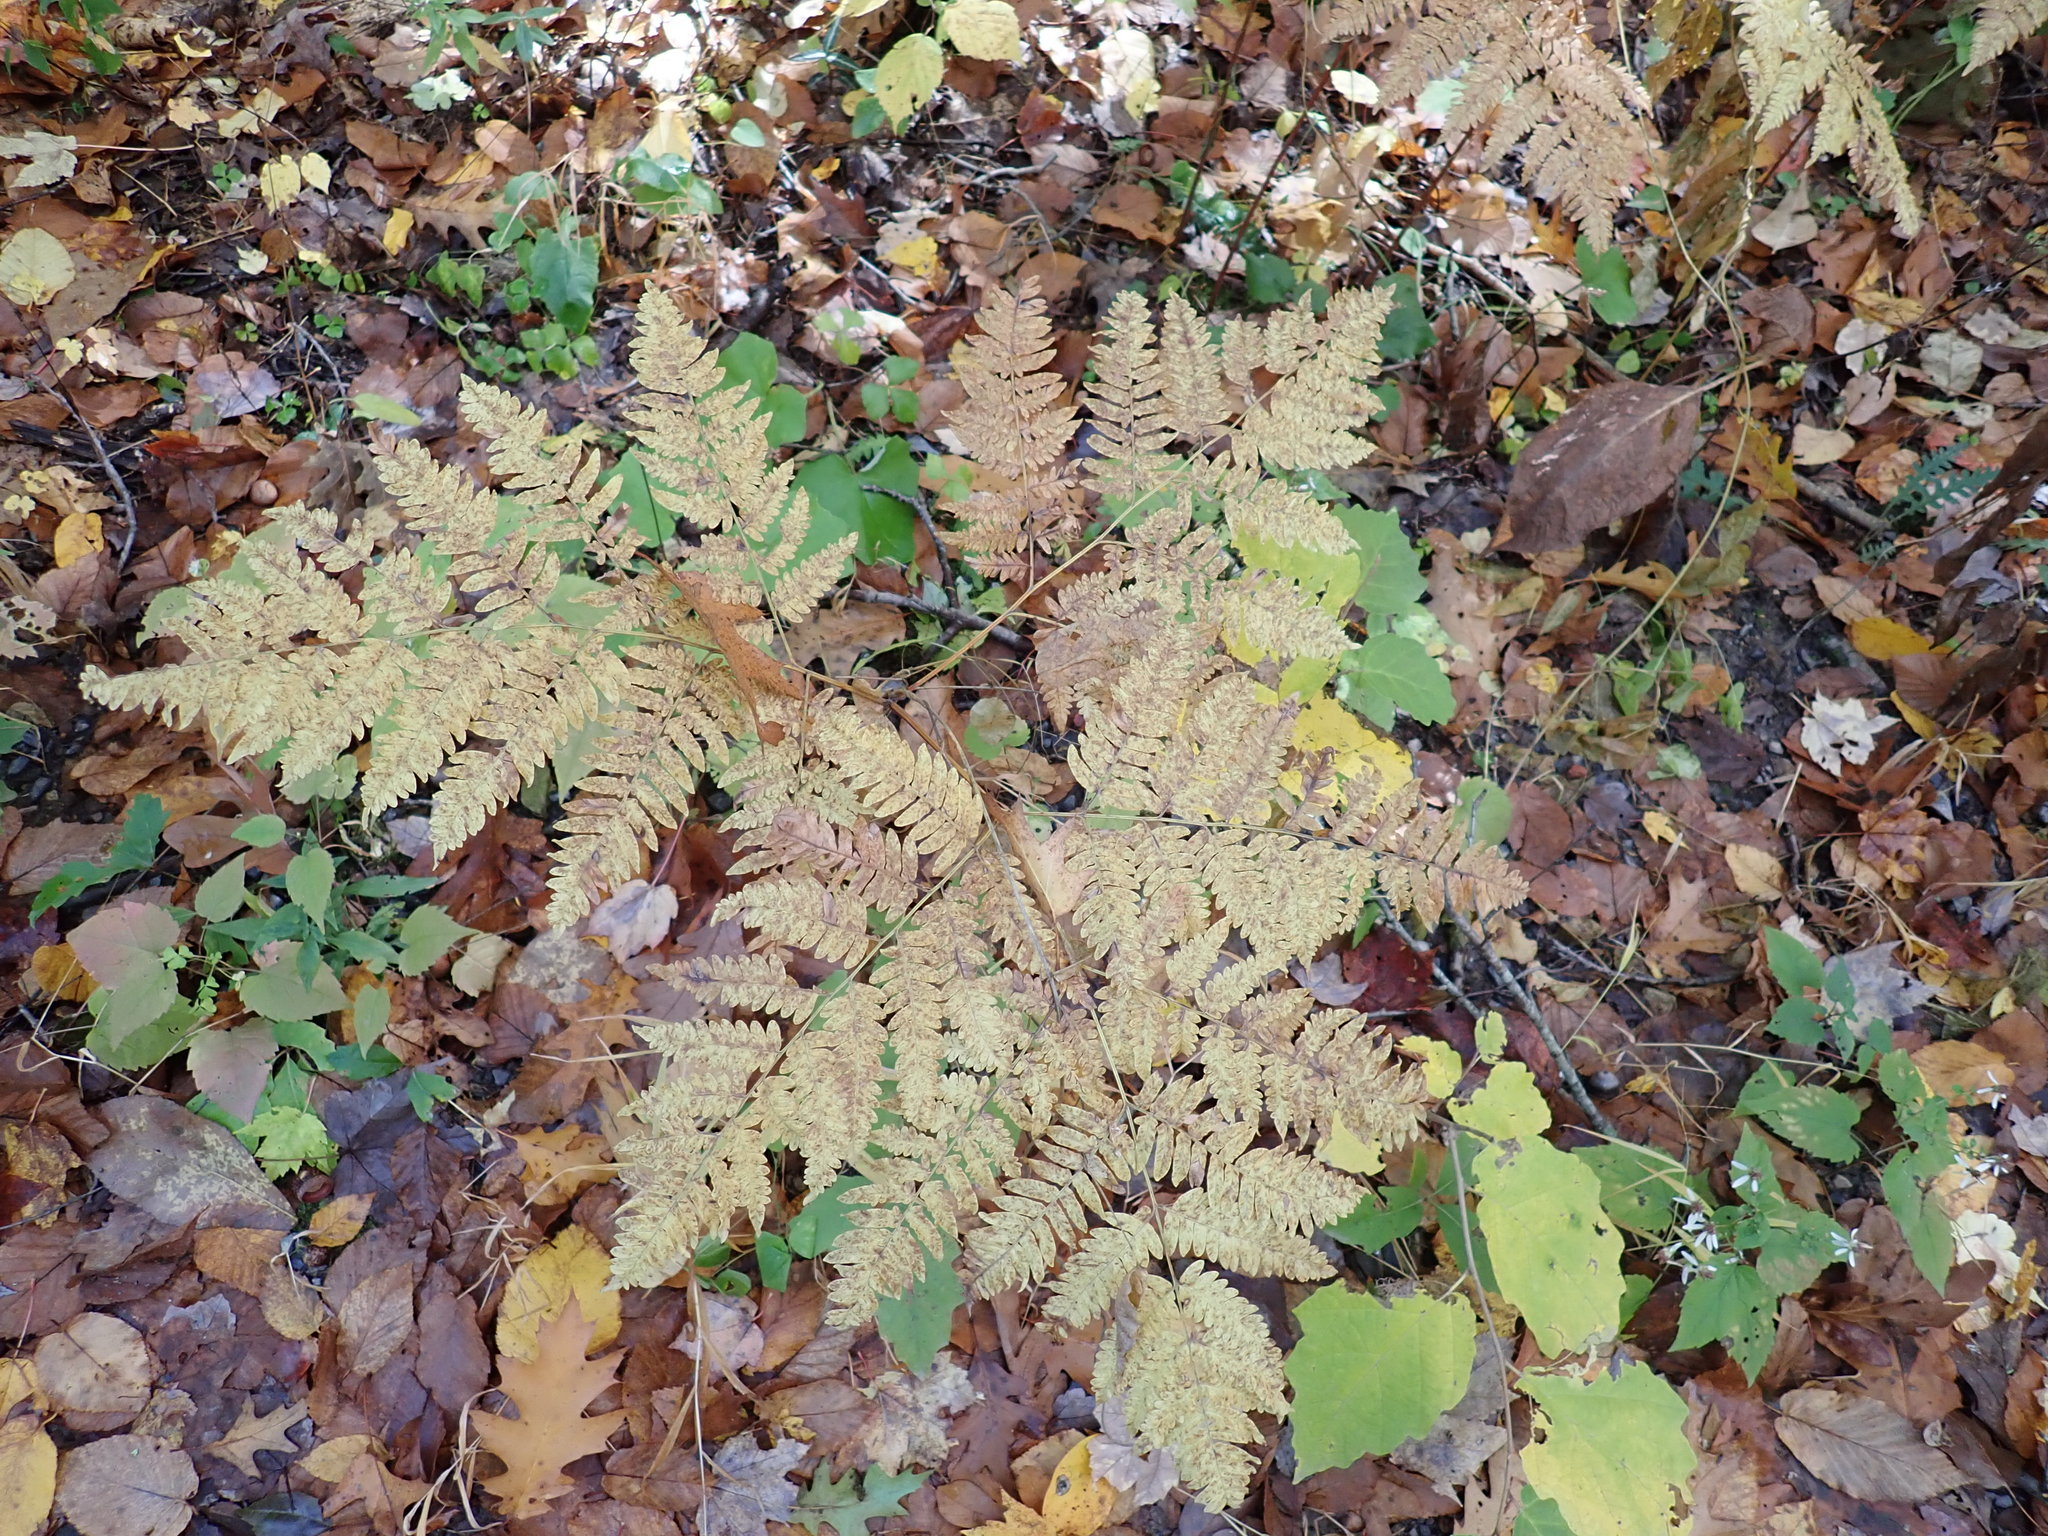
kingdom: Plantae
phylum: Tracheophyta
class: Polypodiopsida
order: Polypodiales
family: Dennstaedtiaceae
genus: Pteridium
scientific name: Pteridium aquilinum
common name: Bracken
